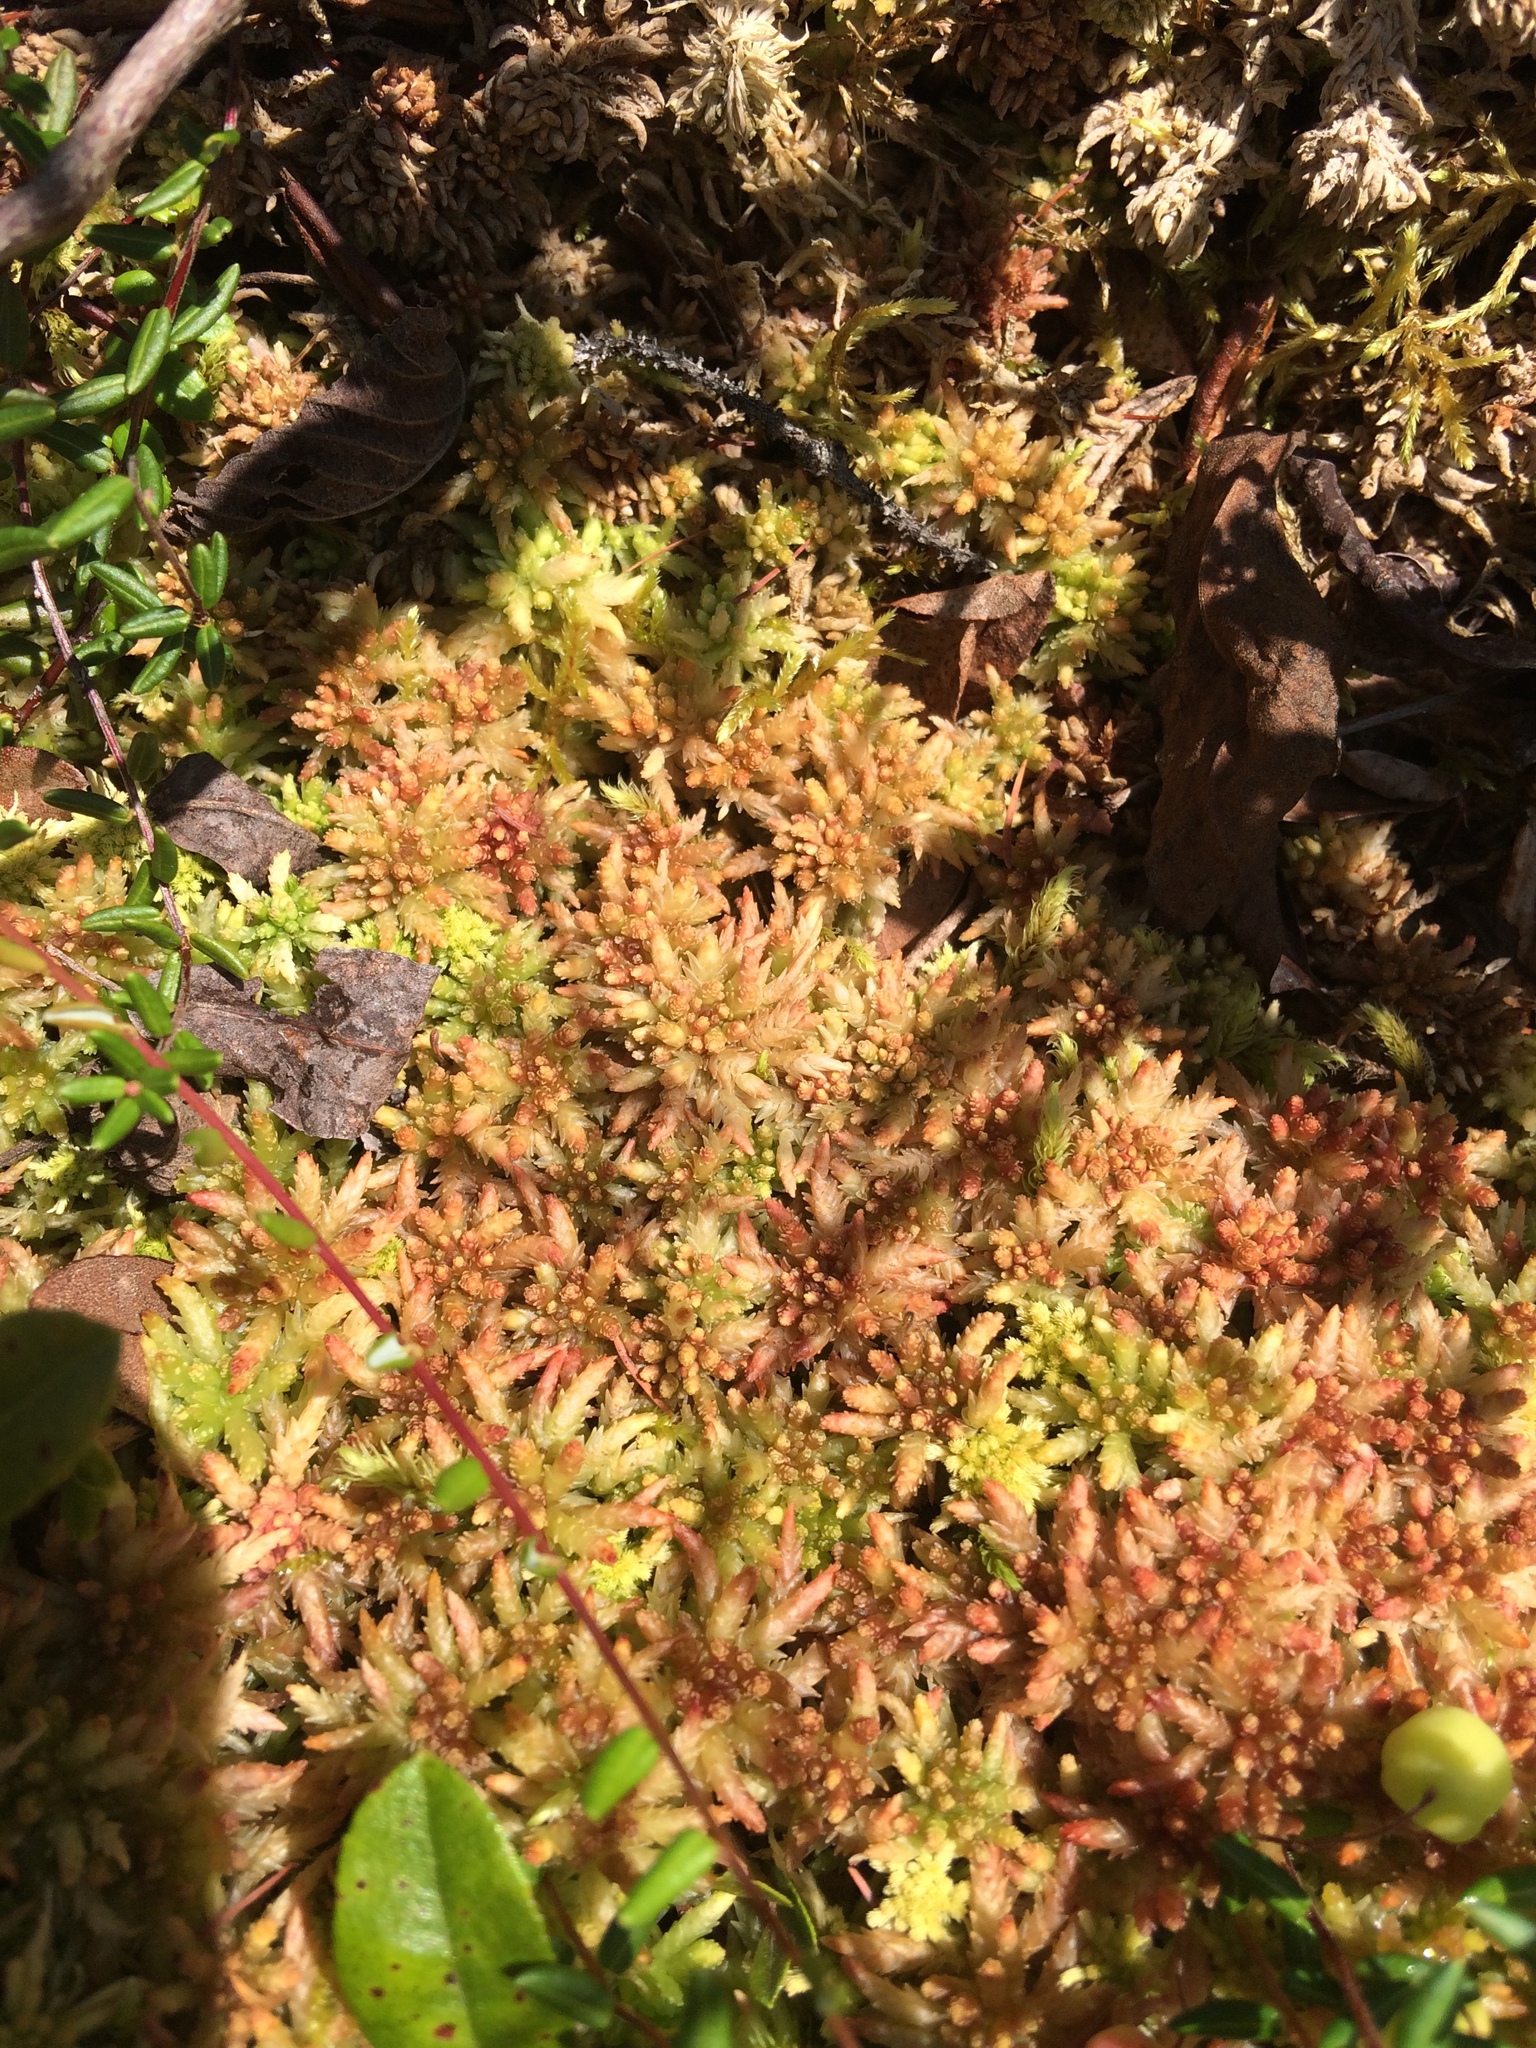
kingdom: Plantae
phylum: Bryophyta
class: Sphagnopsida
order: Sphagnales
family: Sphagnaceae
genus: Sphagnum
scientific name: Sphagnum
